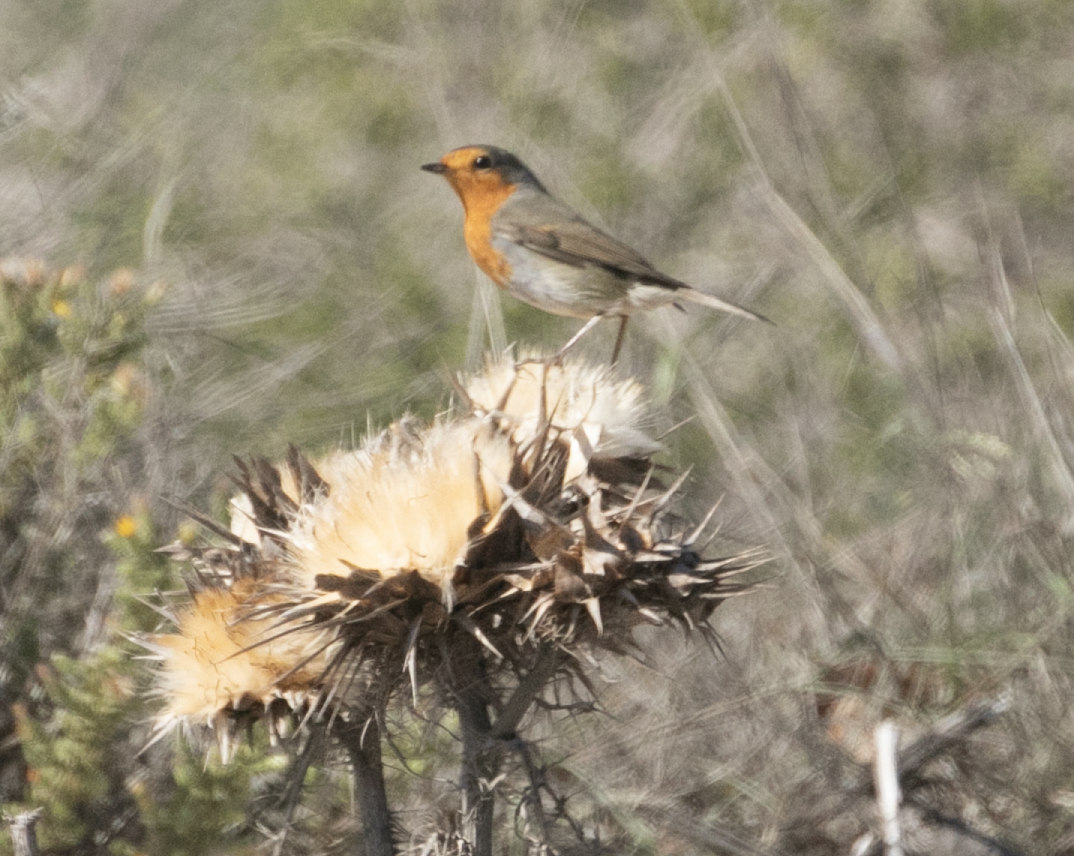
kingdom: Animalia
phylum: Chordata
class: Aves
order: Passeriformes
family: Muscicapidae
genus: Erithacus
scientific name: Erithacus rubecula
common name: European robin
